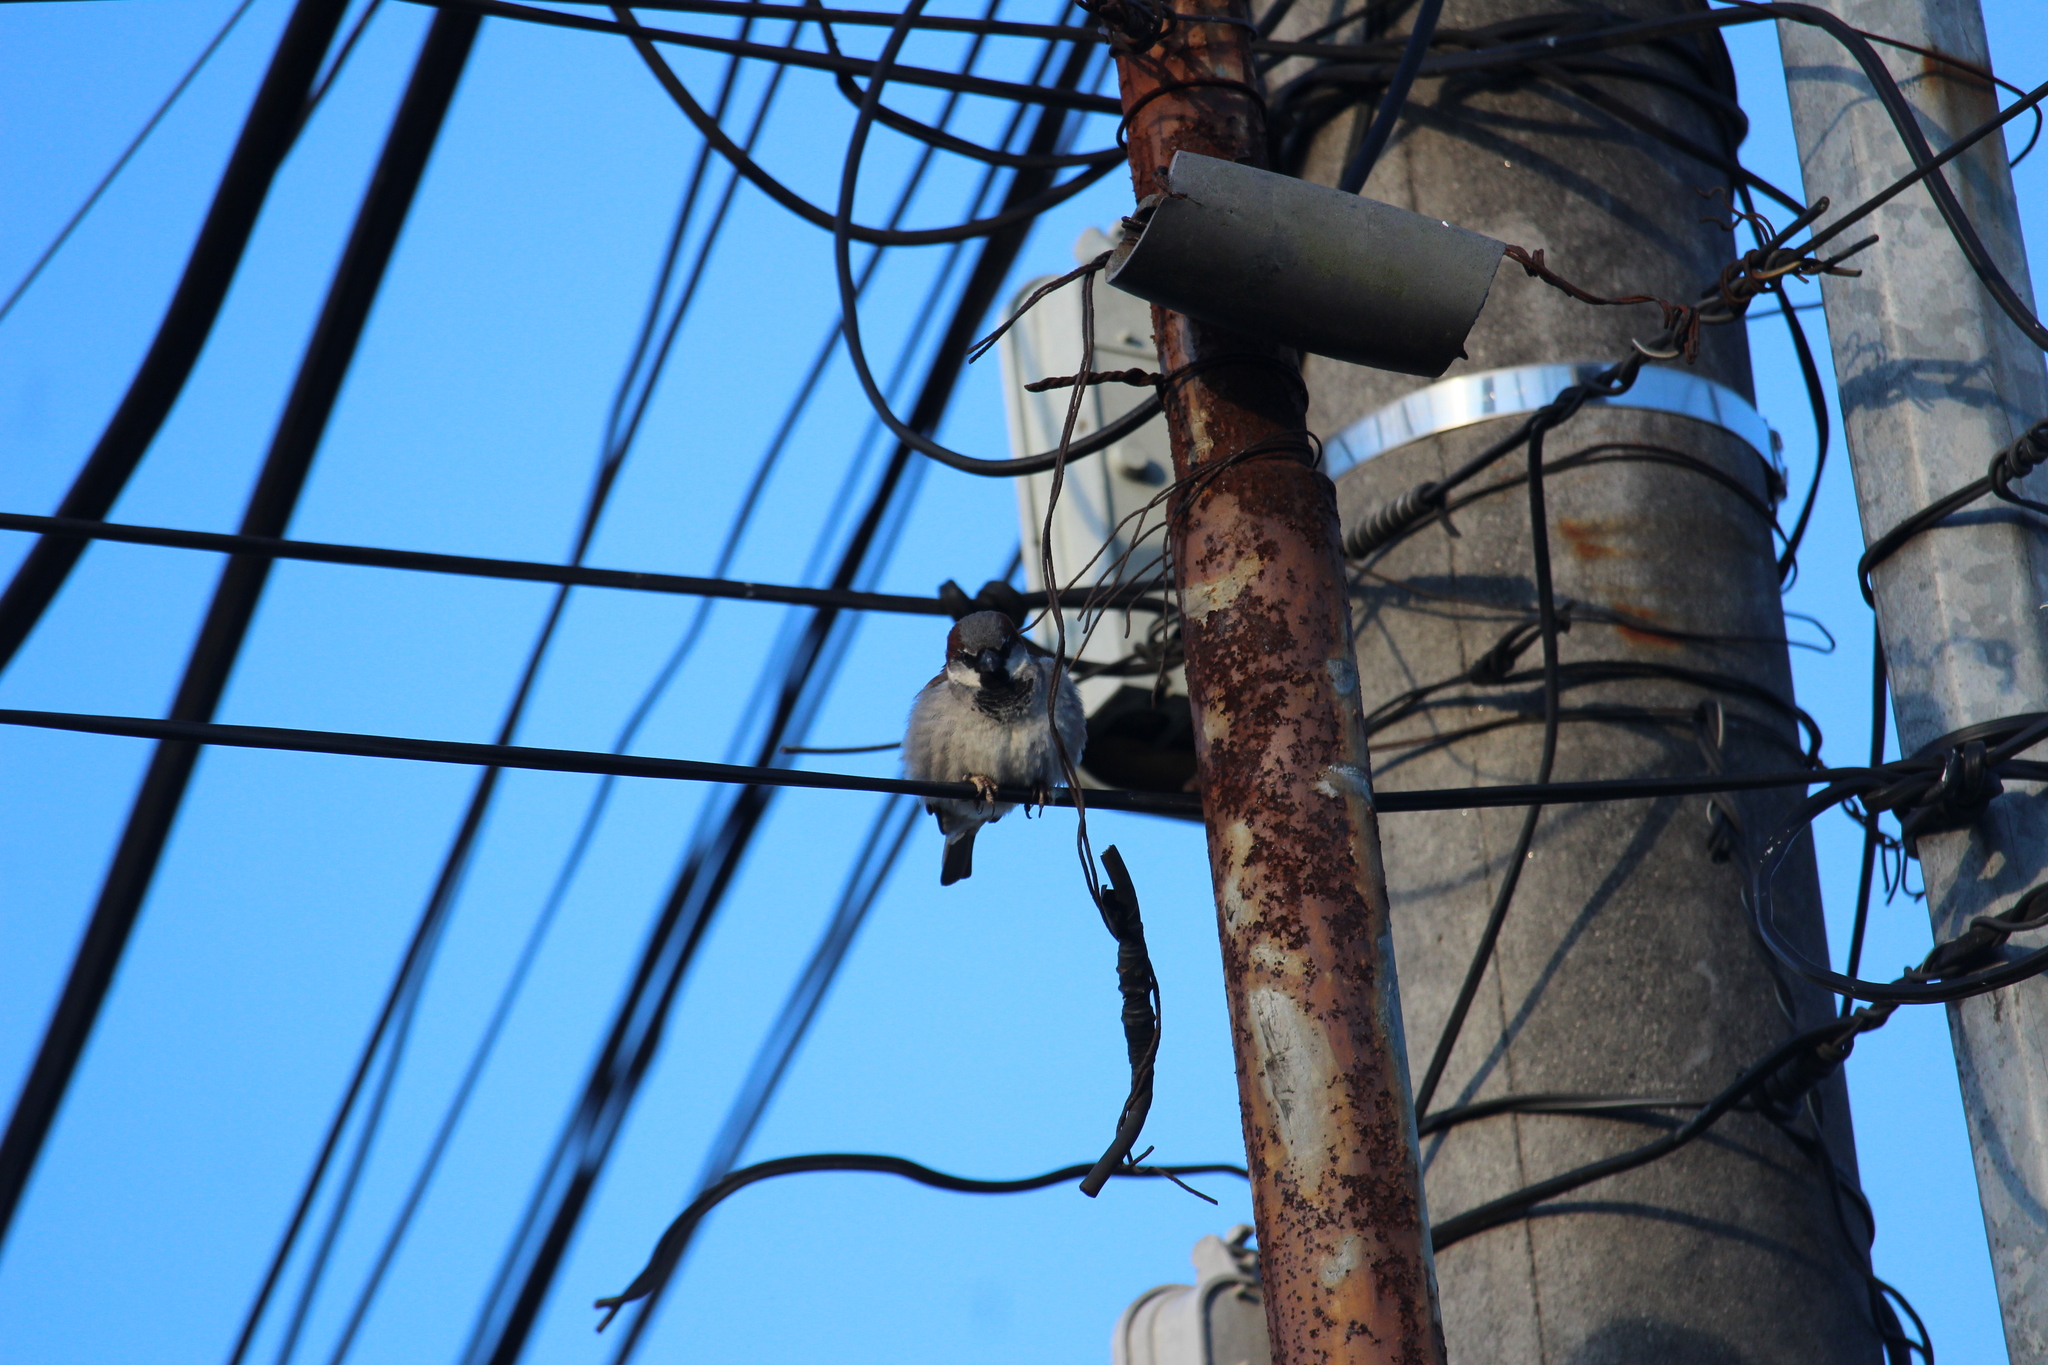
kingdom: Animalia
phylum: Chordata
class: Aves
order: Passeriformes
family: Passeridae
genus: Passer
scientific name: Passer domesticus
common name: House sparrow
